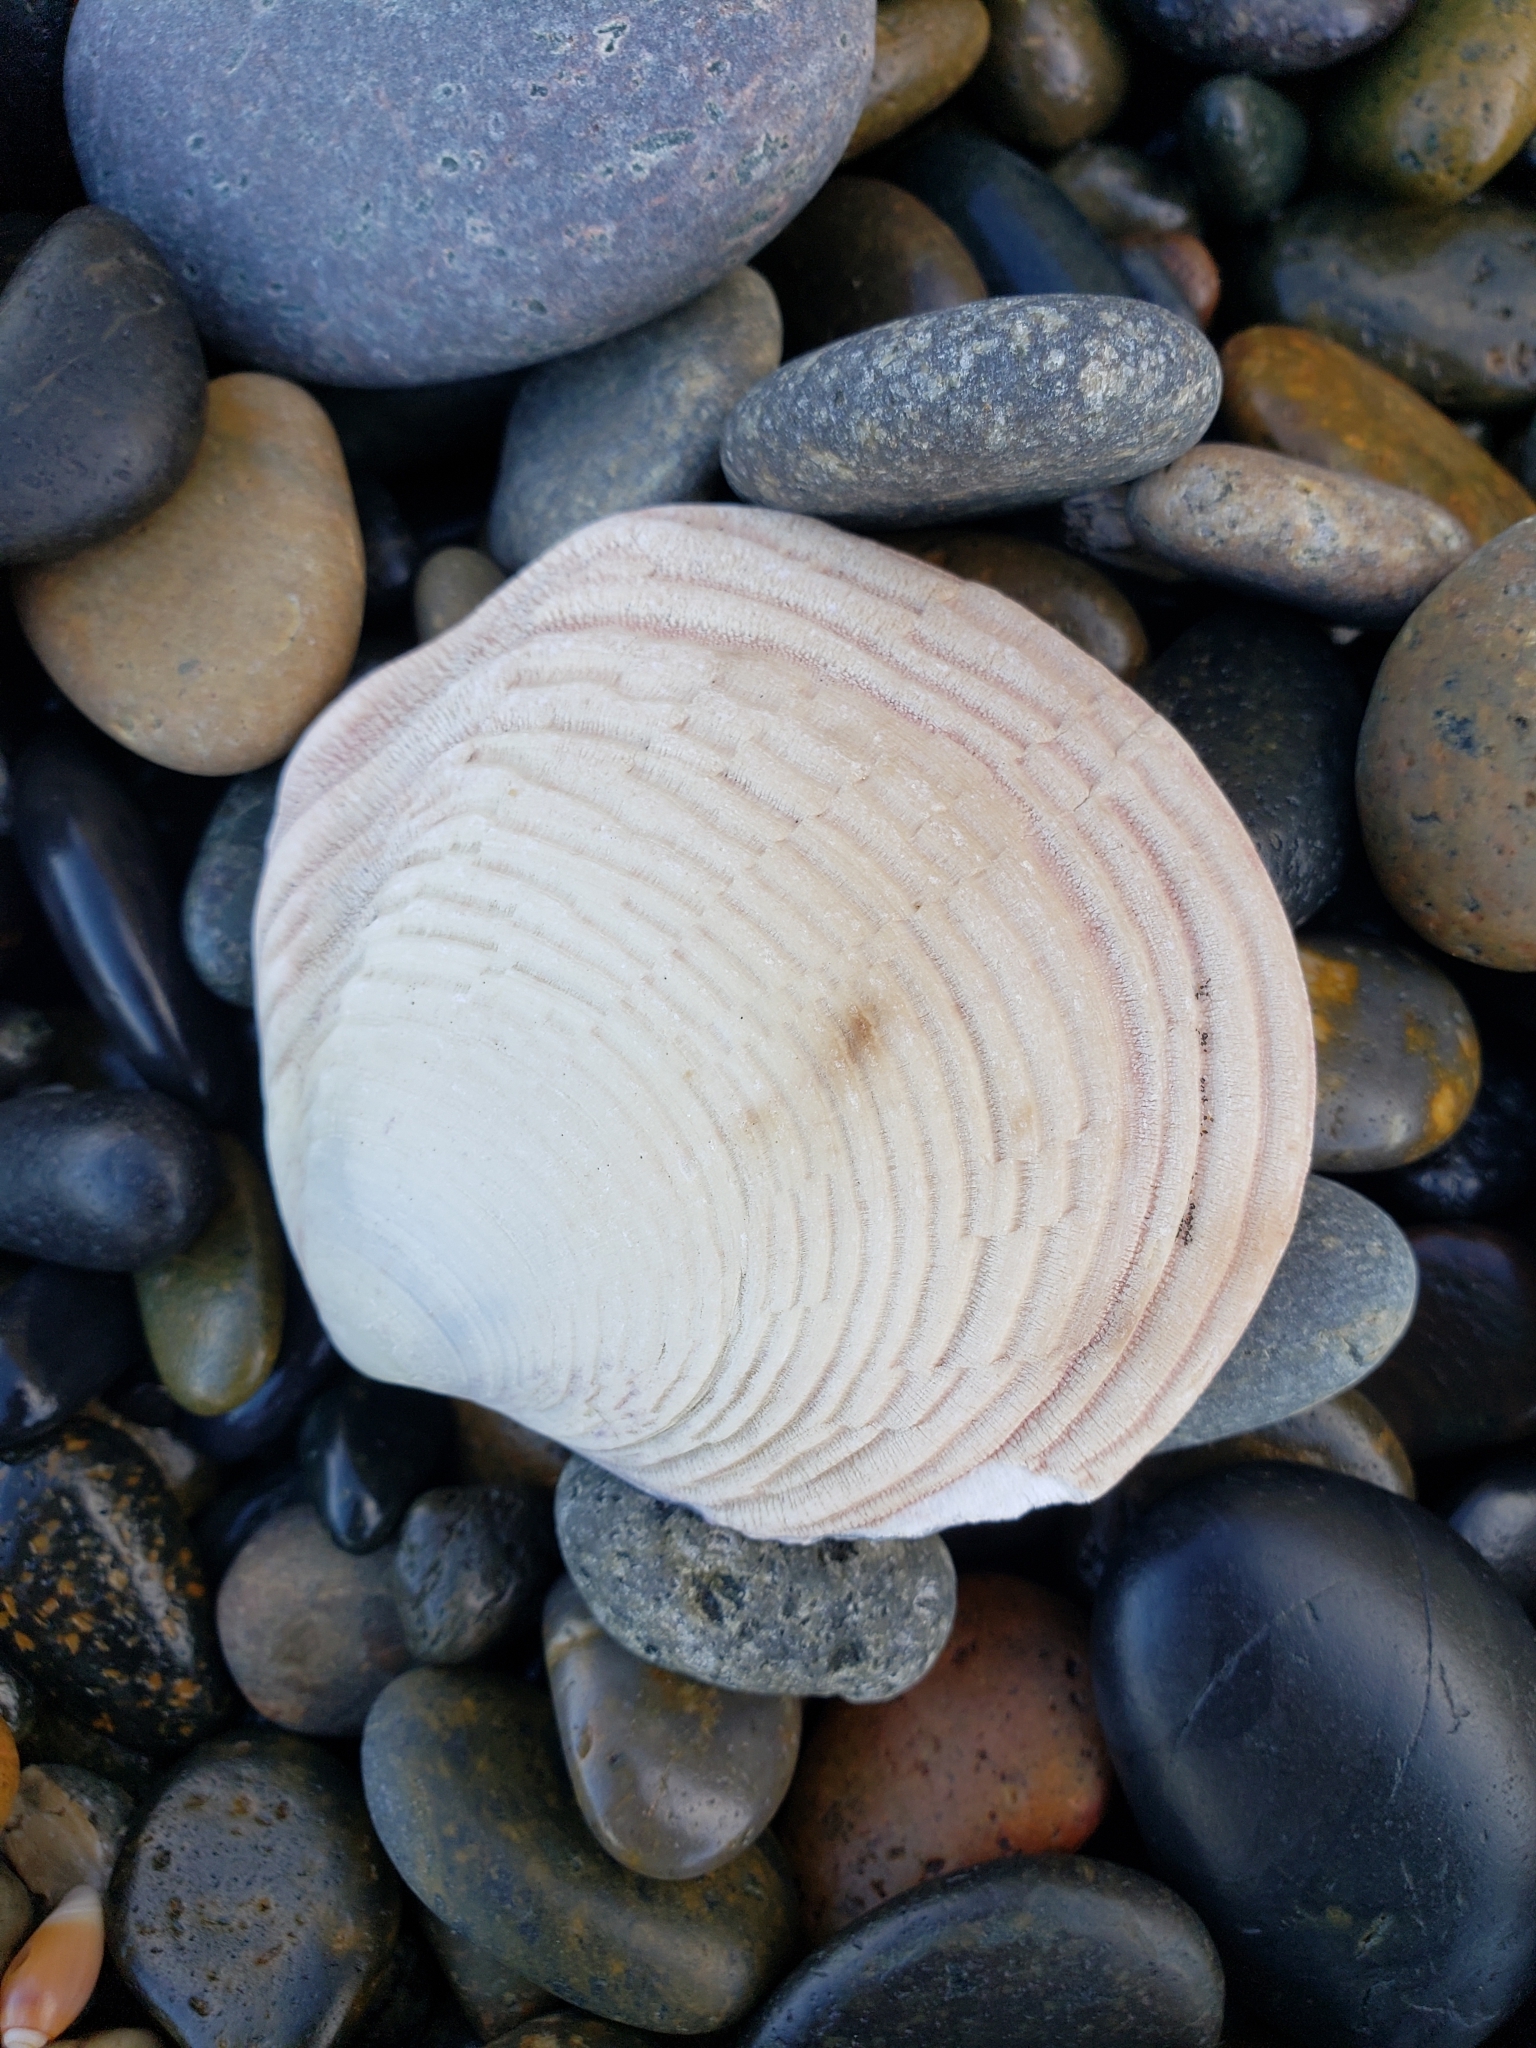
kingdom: Animalia
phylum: Mollusca
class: Bivalvia
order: Cardiida
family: Semelidae
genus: Semele
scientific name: Semele decisa
